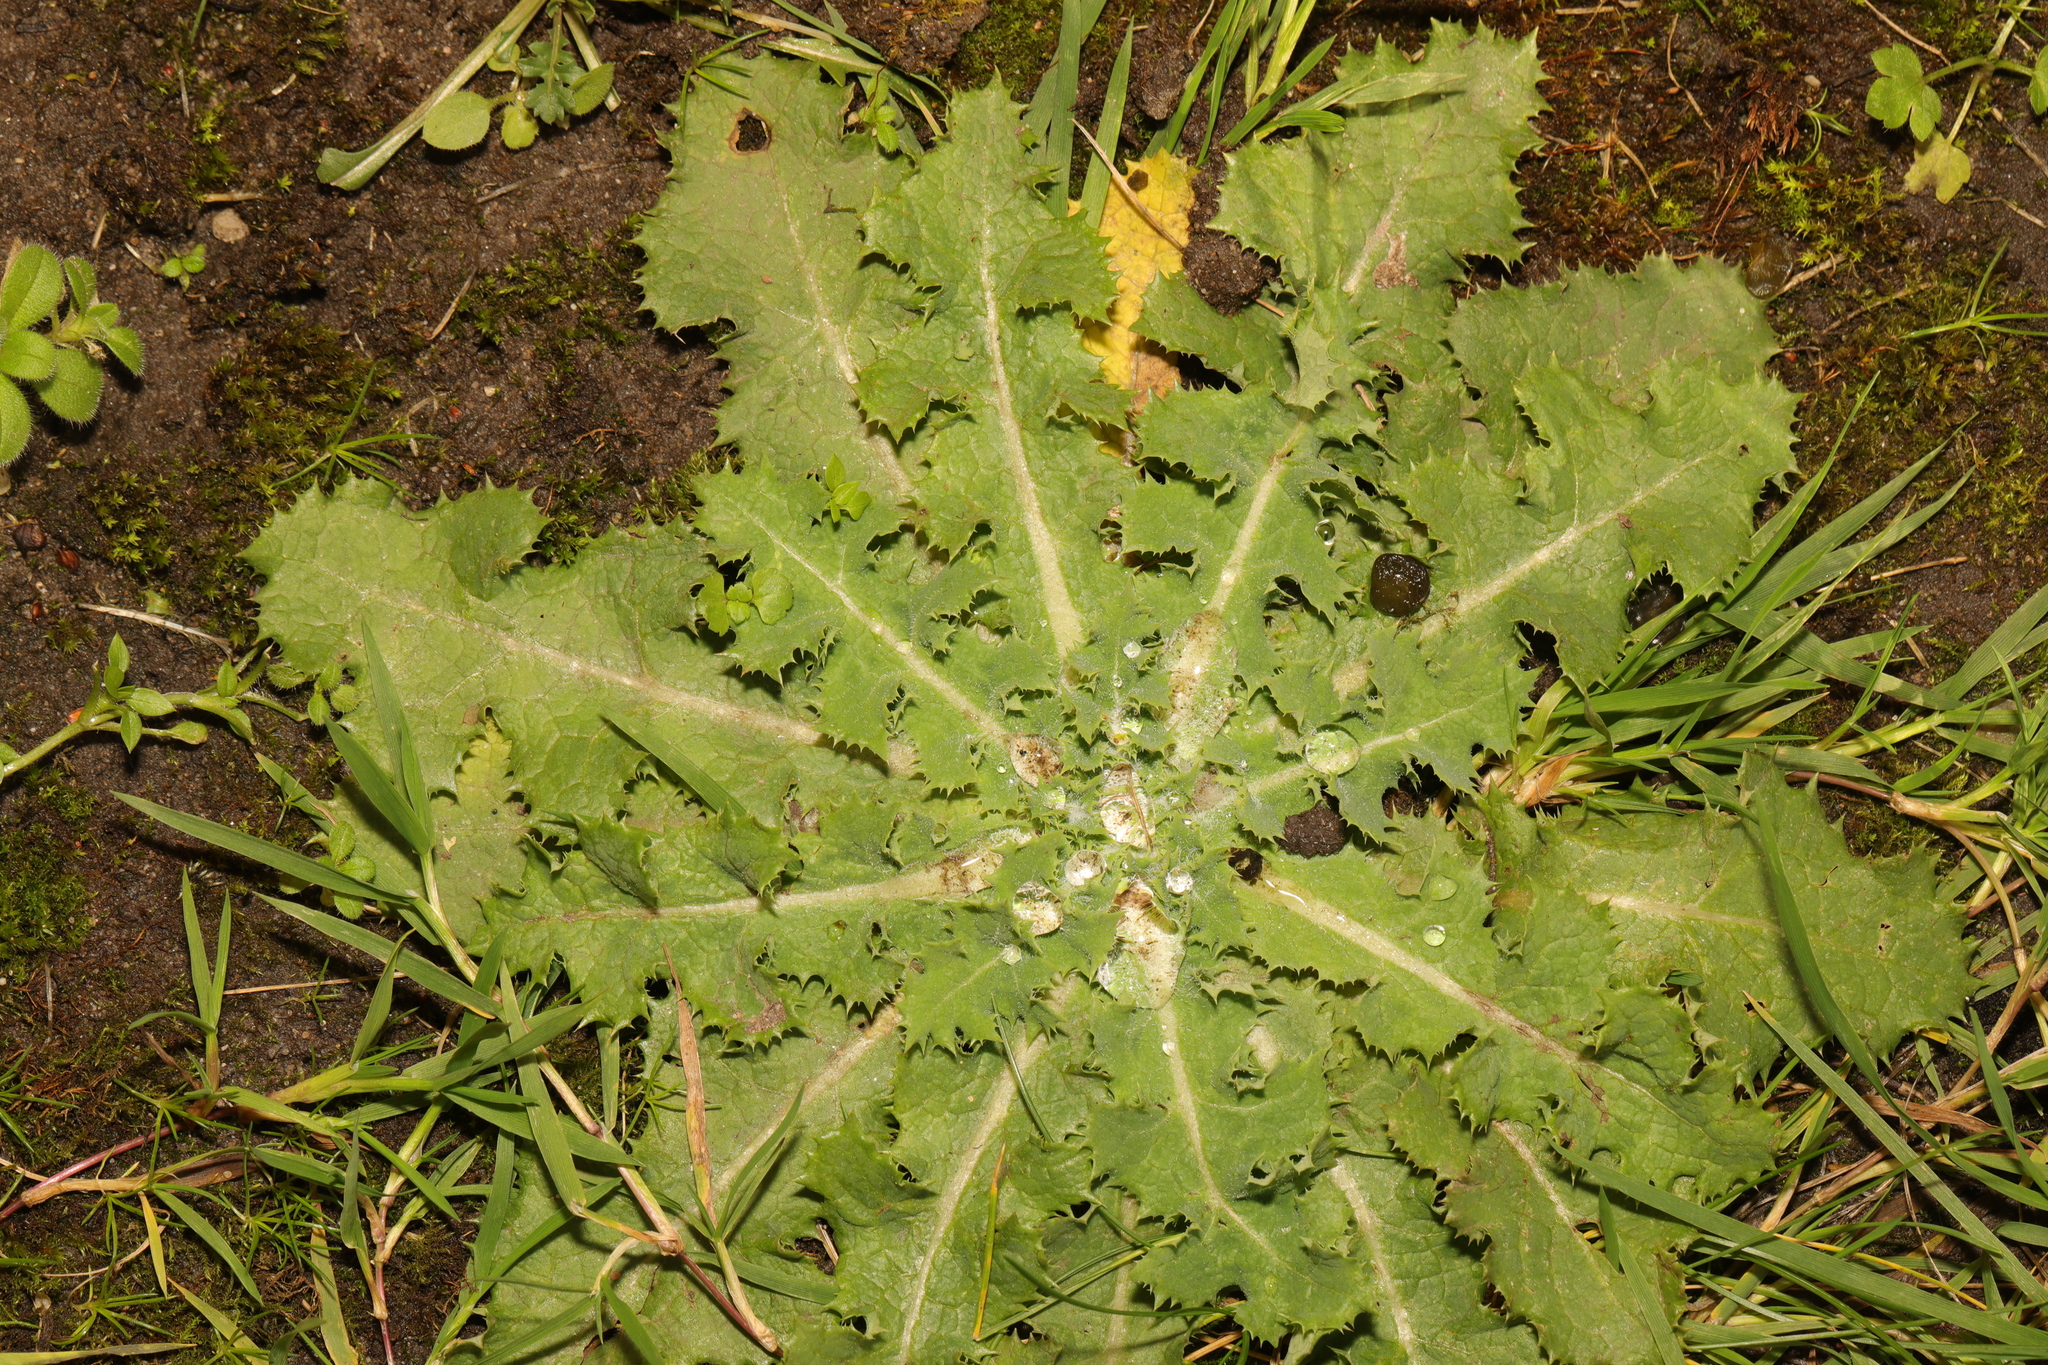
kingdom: Plantae
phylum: Tracheophyta
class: Magnoliopsida
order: Asterales
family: Asteraceae
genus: Sonchus
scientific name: Sonchus asper
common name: Prickly sow-thistle
